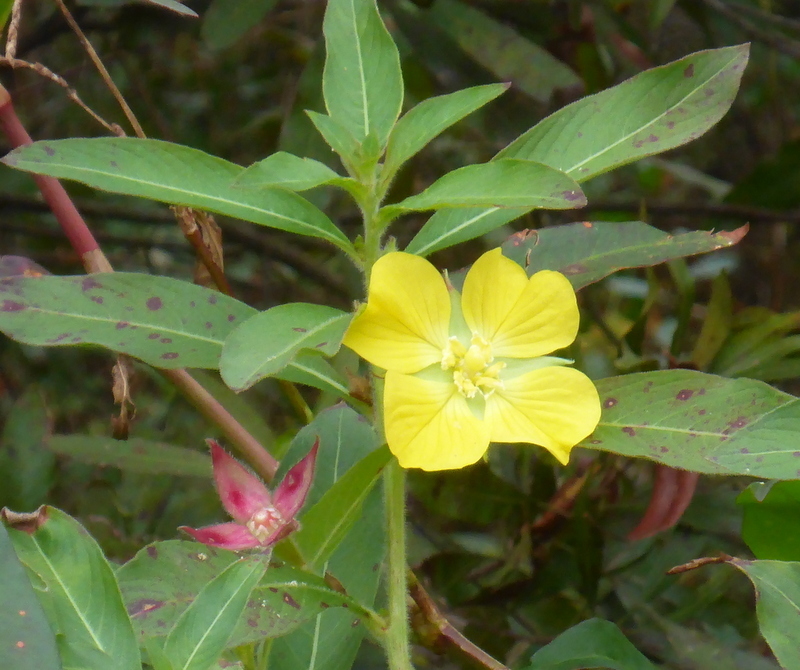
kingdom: Plantae
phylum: Tracheophyta
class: Magnoliopsida
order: Myrtales
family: Onagraceae
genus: Ludwigia
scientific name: Ludwigia peruviana
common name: Peruvian primrose-willow
